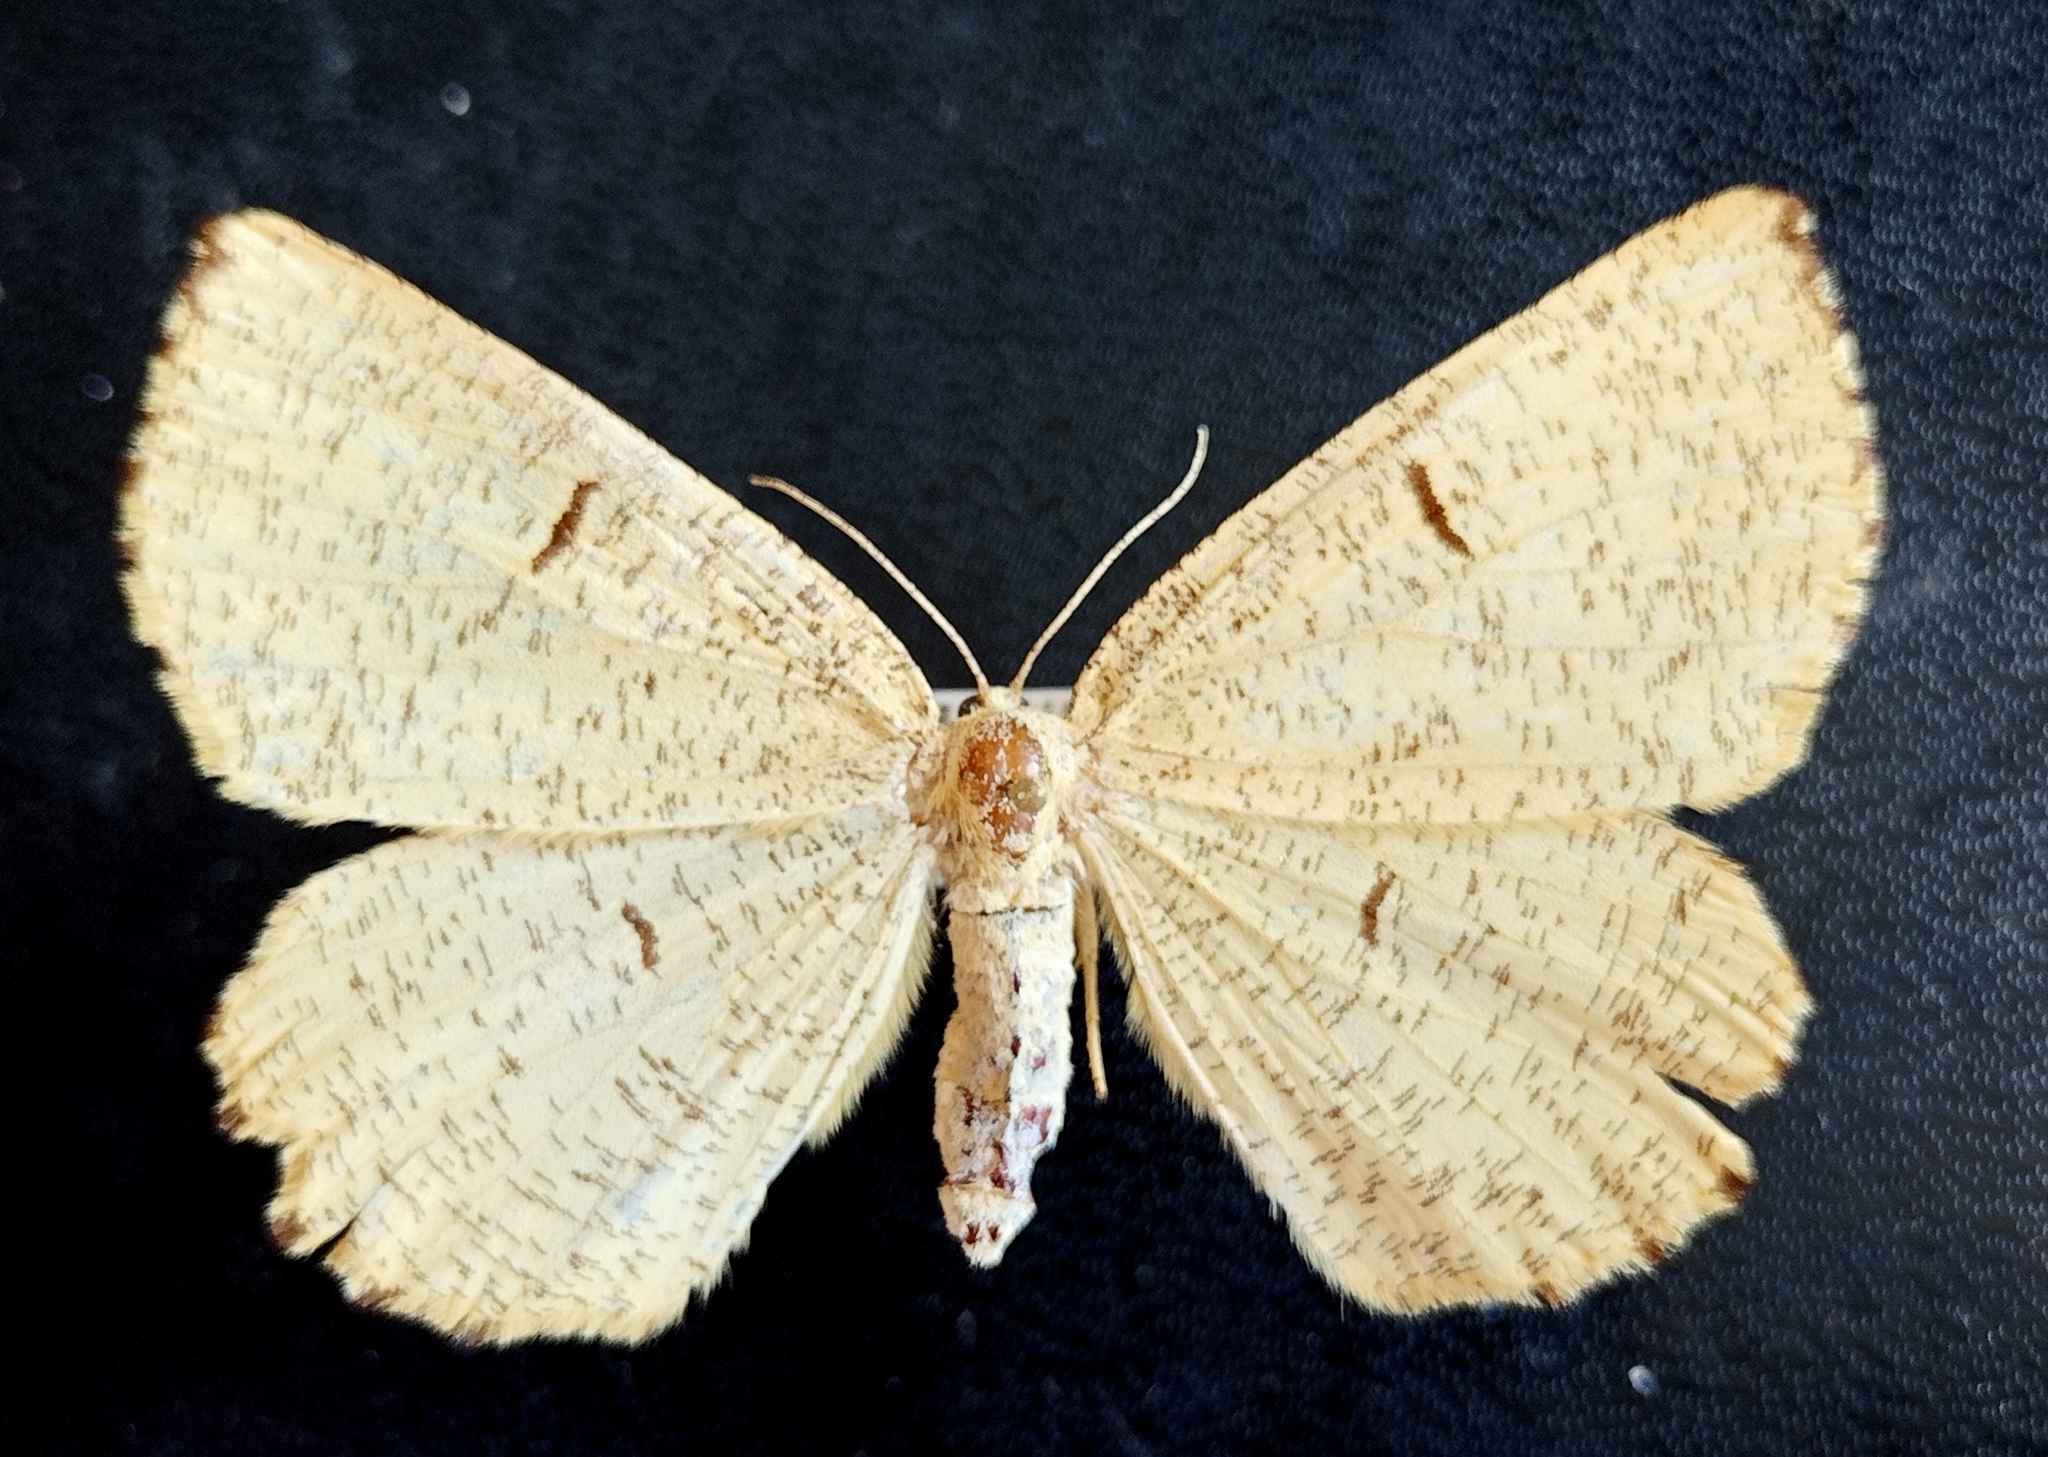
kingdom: Animalia
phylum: Arthropoda
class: Insecta
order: Lepidoptera
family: Geometridae
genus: Angerona
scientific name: Angerona prunaria
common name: Orange moth
